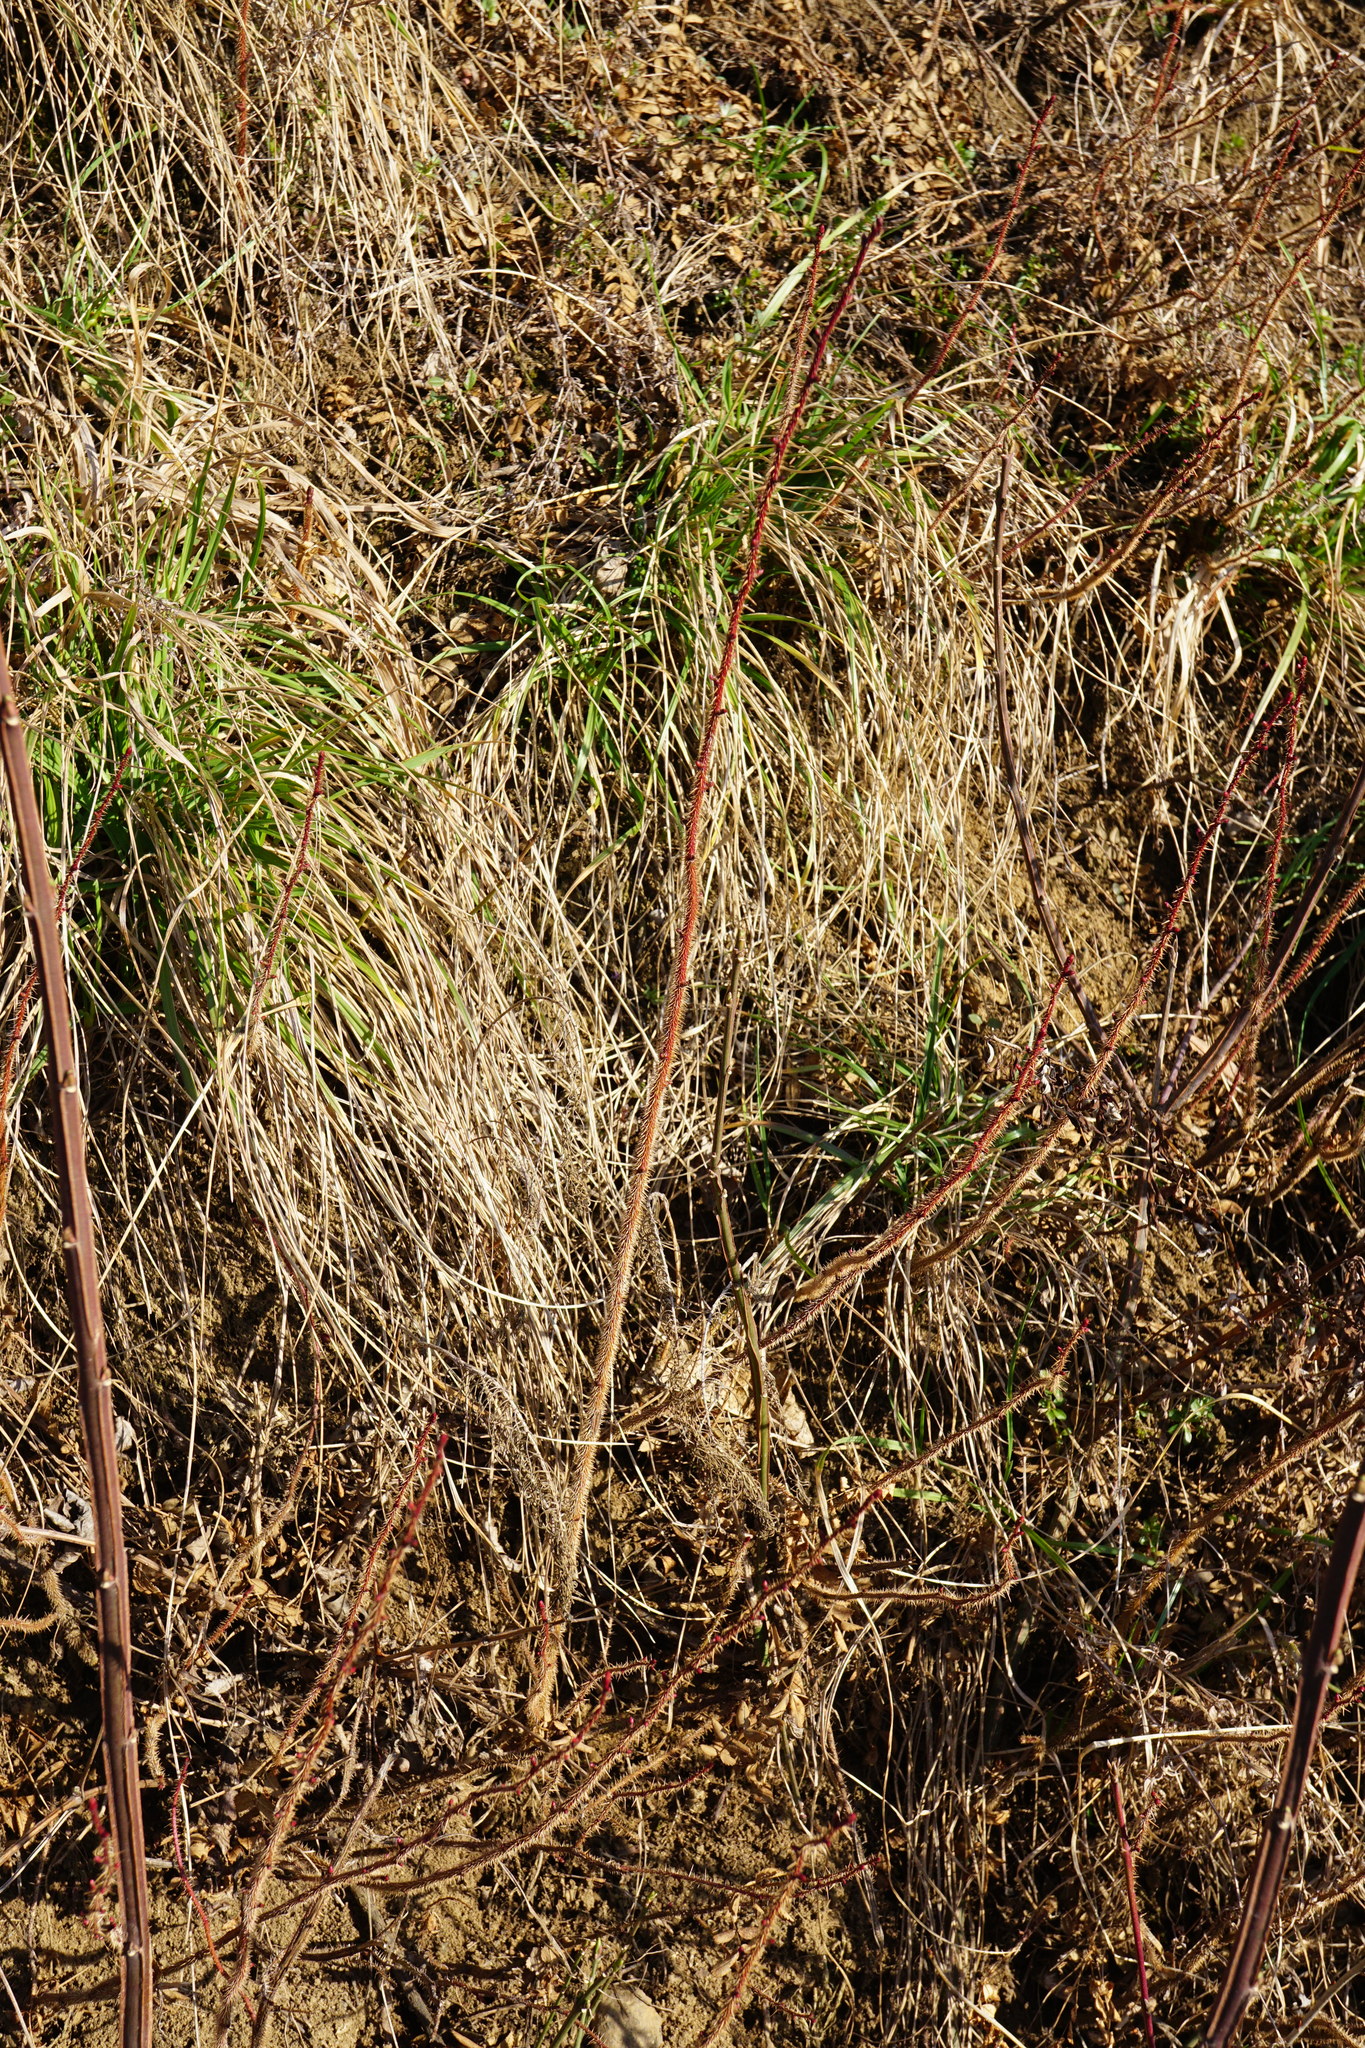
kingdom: Plantae
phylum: Tracheophyta
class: Magnoliopsida
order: Rosales
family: Rosaceae
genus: Rosa
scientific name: Rosa spinosissima
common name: Burnet rose
